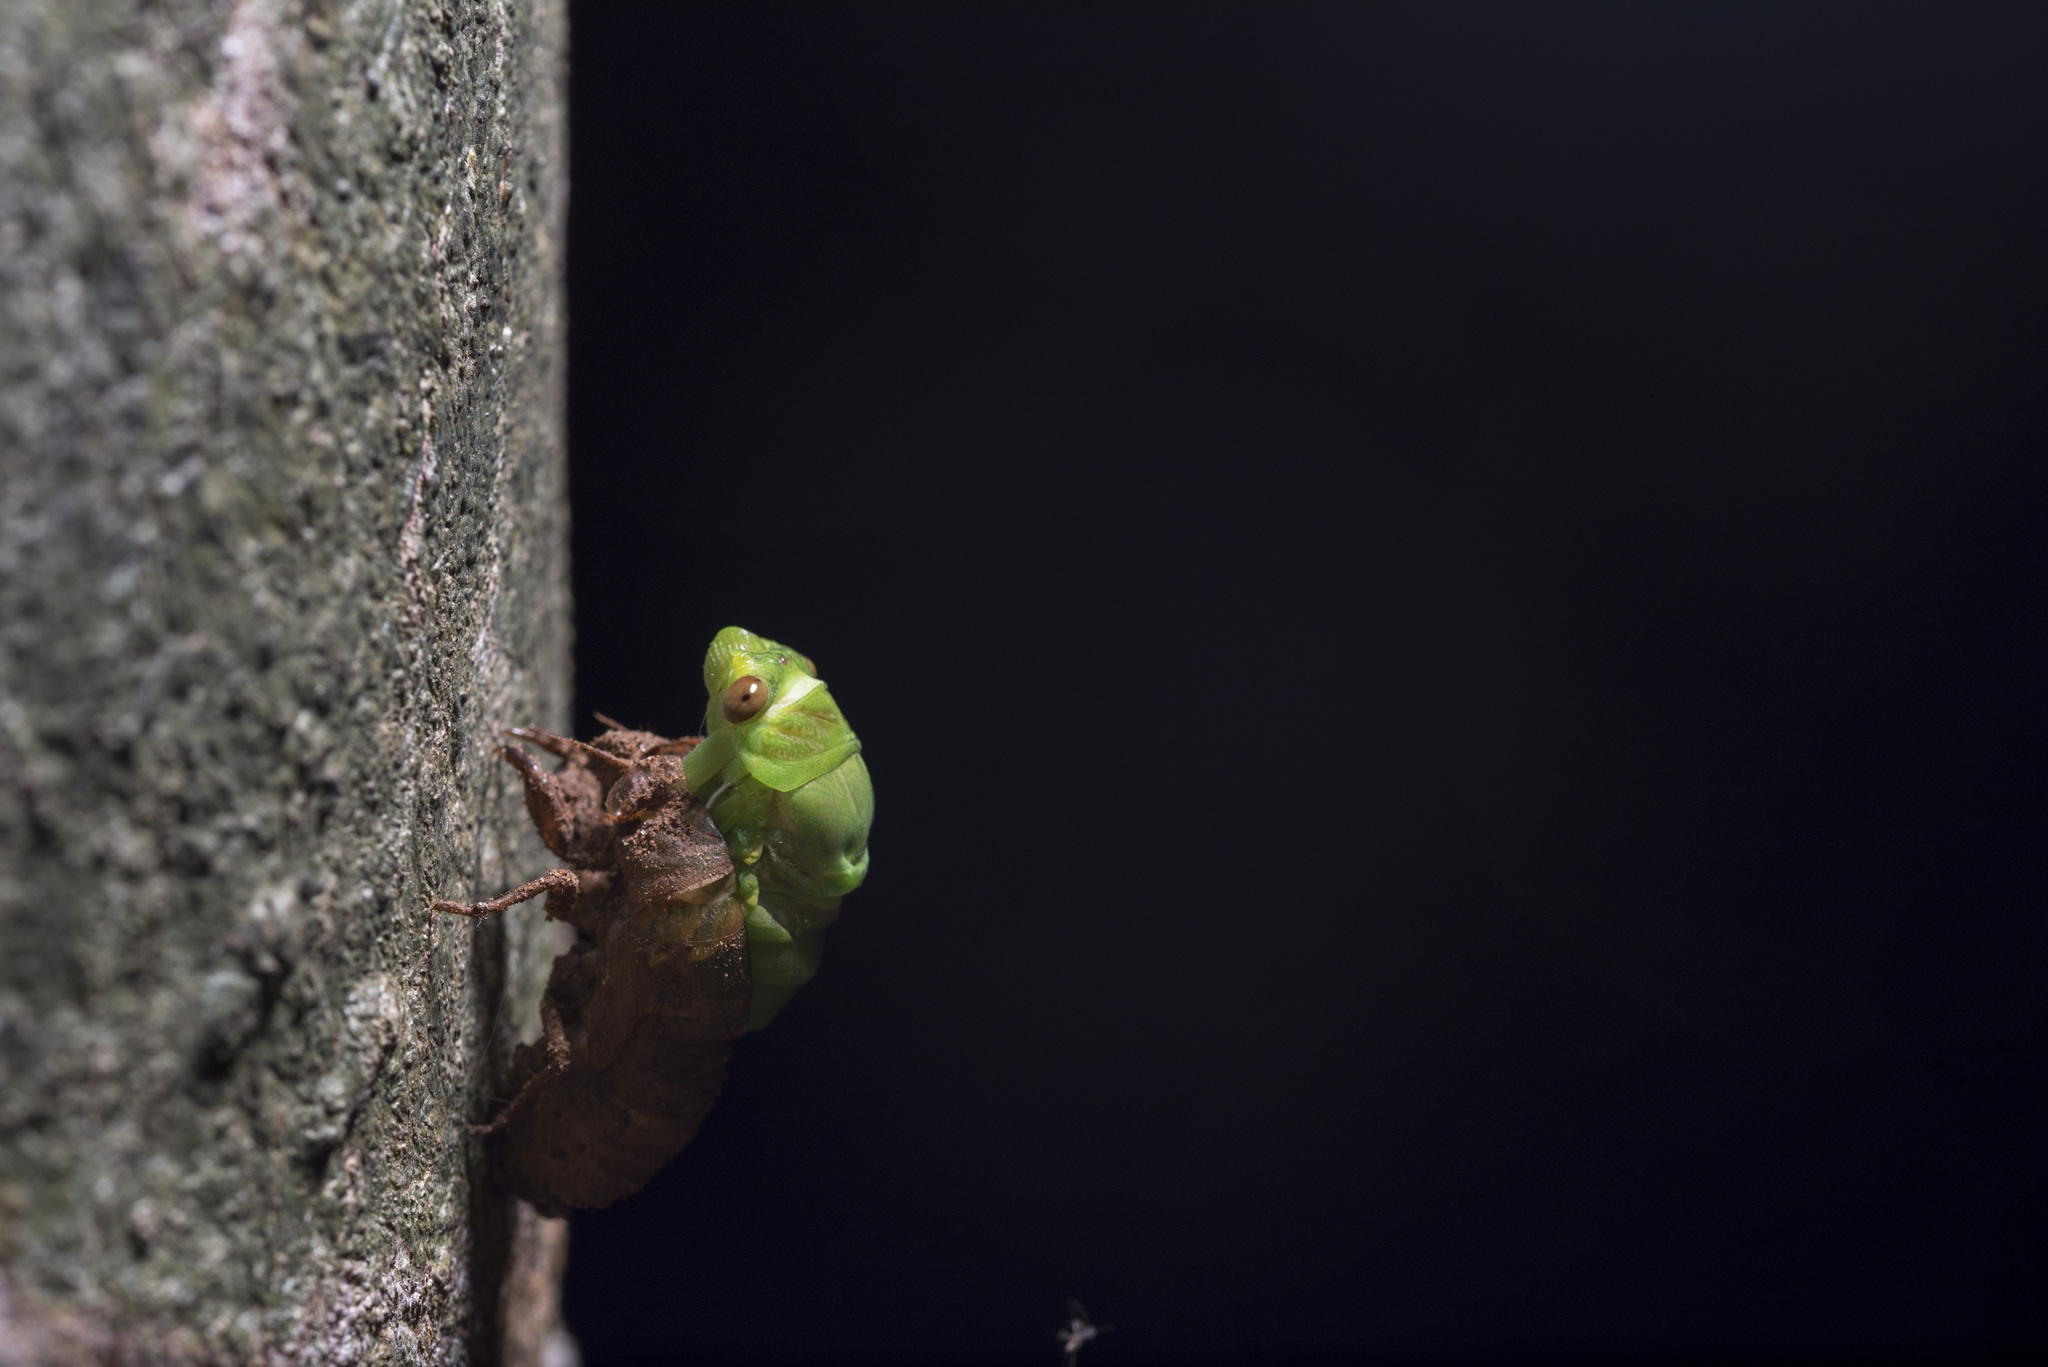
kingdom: Animalia
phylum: Arthropoda
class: Insecta
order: Hemiptera
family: Cicadidae
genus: Chremistica
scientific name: Chremistica ochracea
